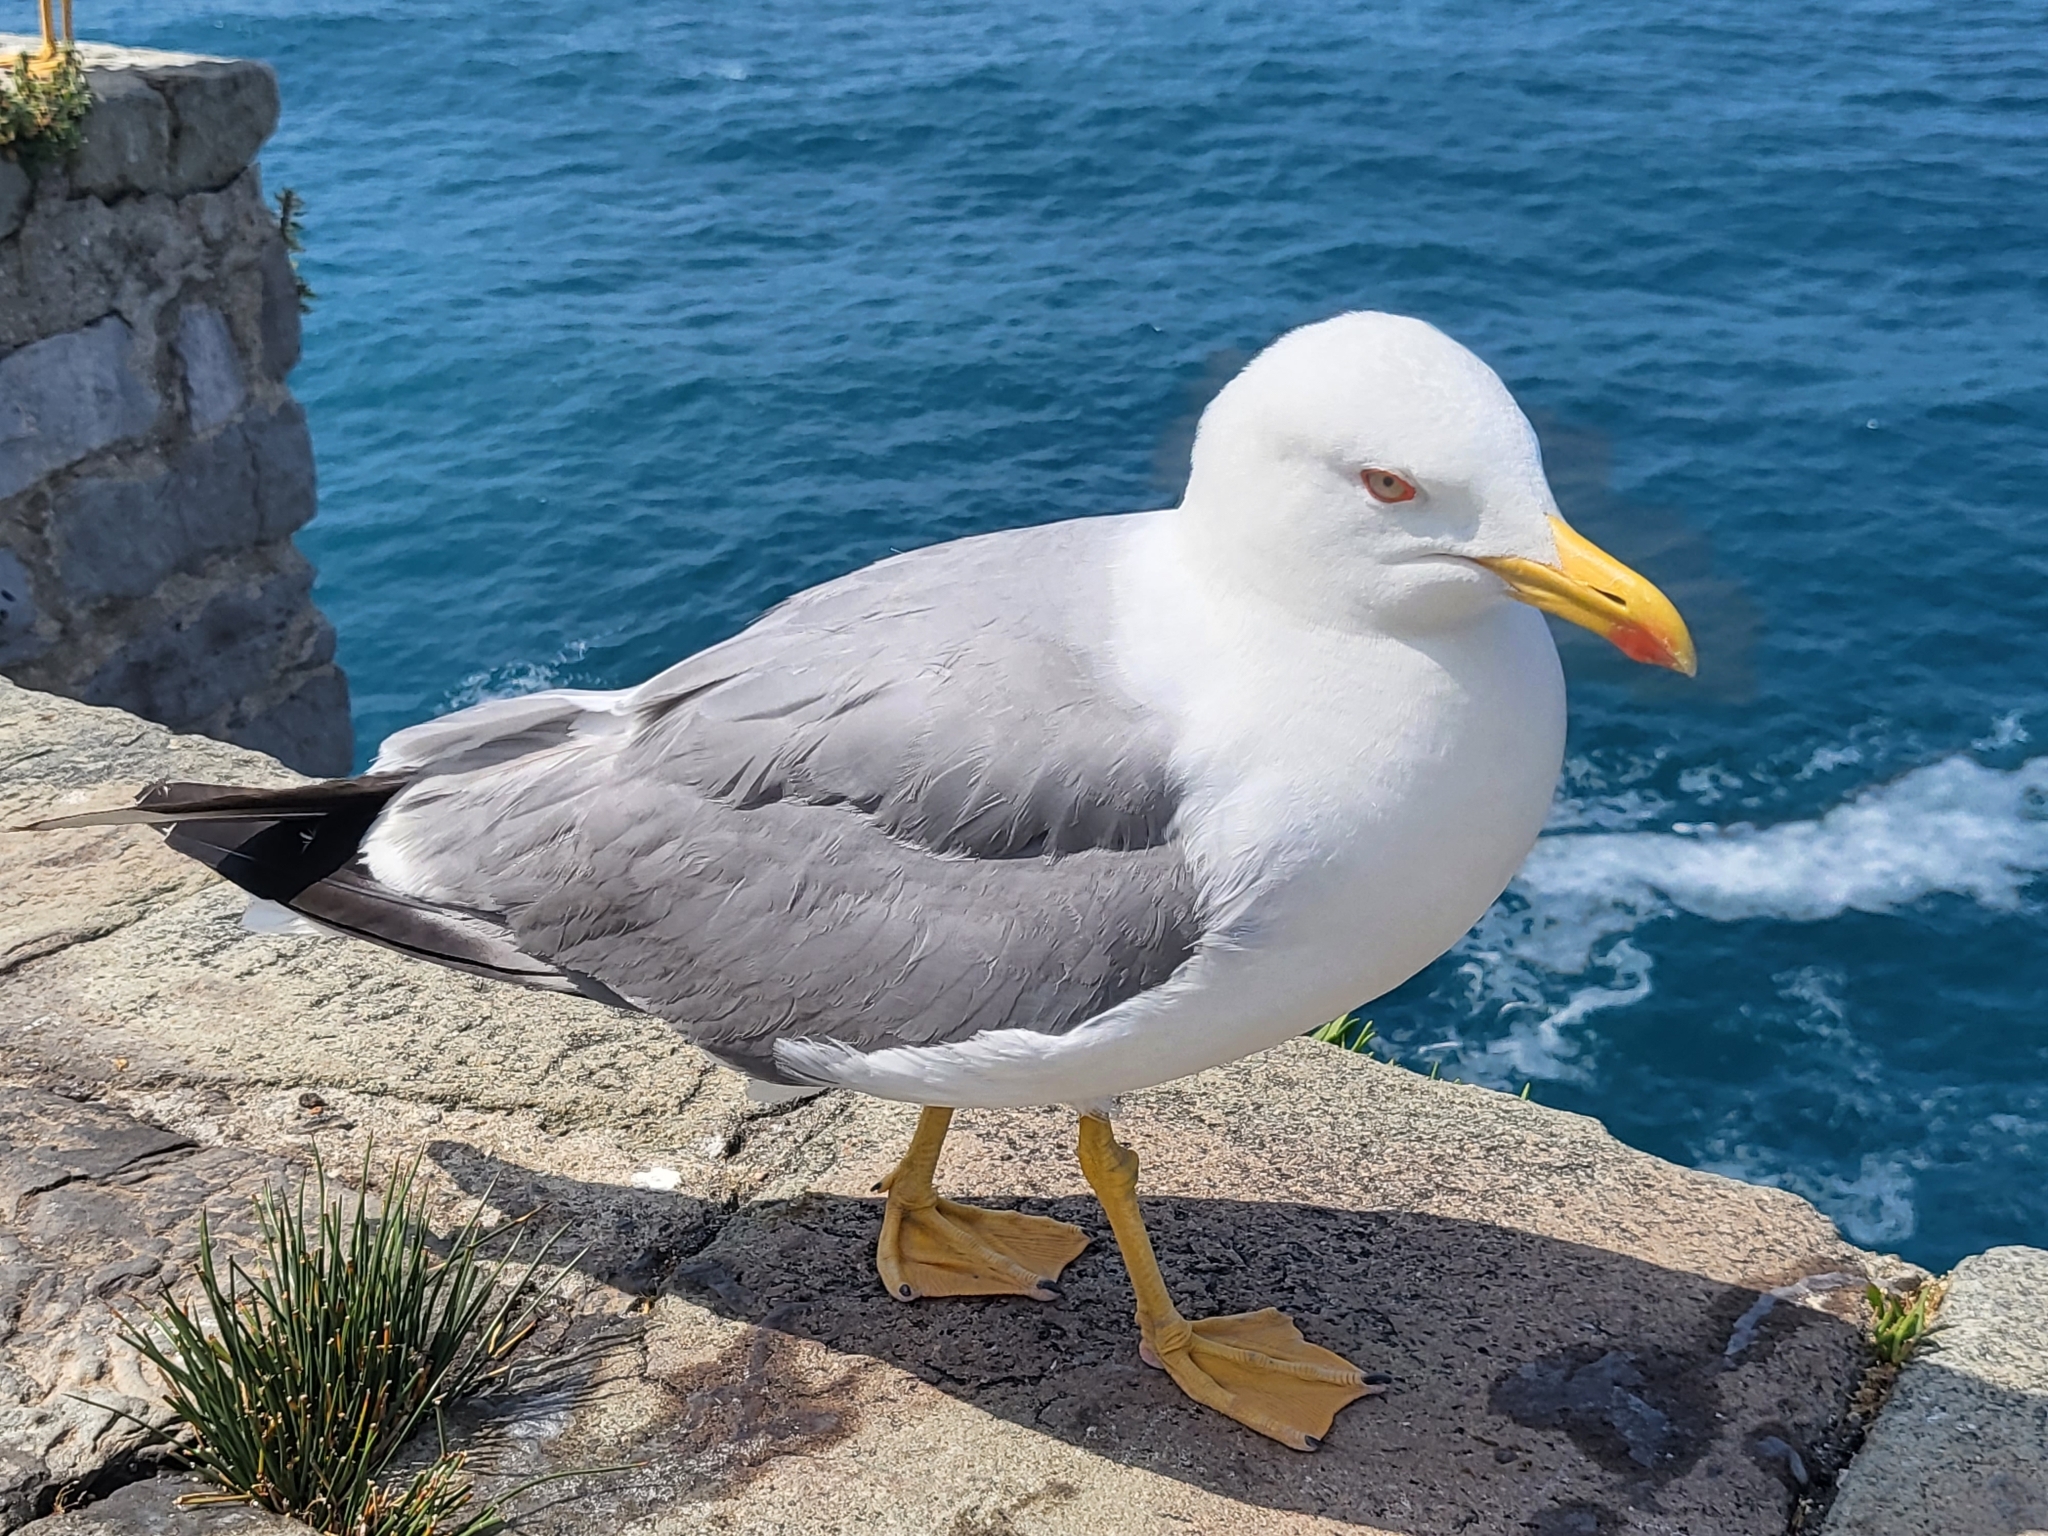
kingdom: Animalia
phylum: Chordata
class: Aves
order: Charadriiformes
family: Laridae
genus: Larus
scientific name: Larus michahellis
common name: Yellow-legged gull
